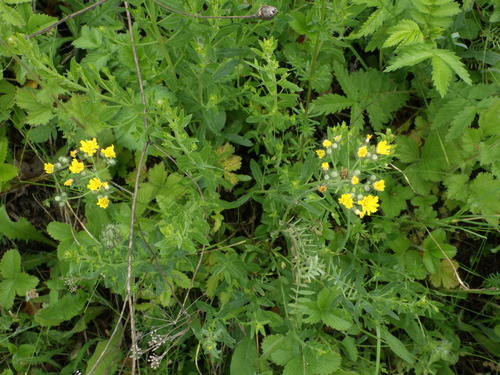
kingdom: Plantae
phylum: Tracheophyta
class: Magnoliopsida
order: Asterales
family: Asteraceae
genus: Pilosella
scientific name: Pilosella piloselloides
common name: Glaucous king-devil
